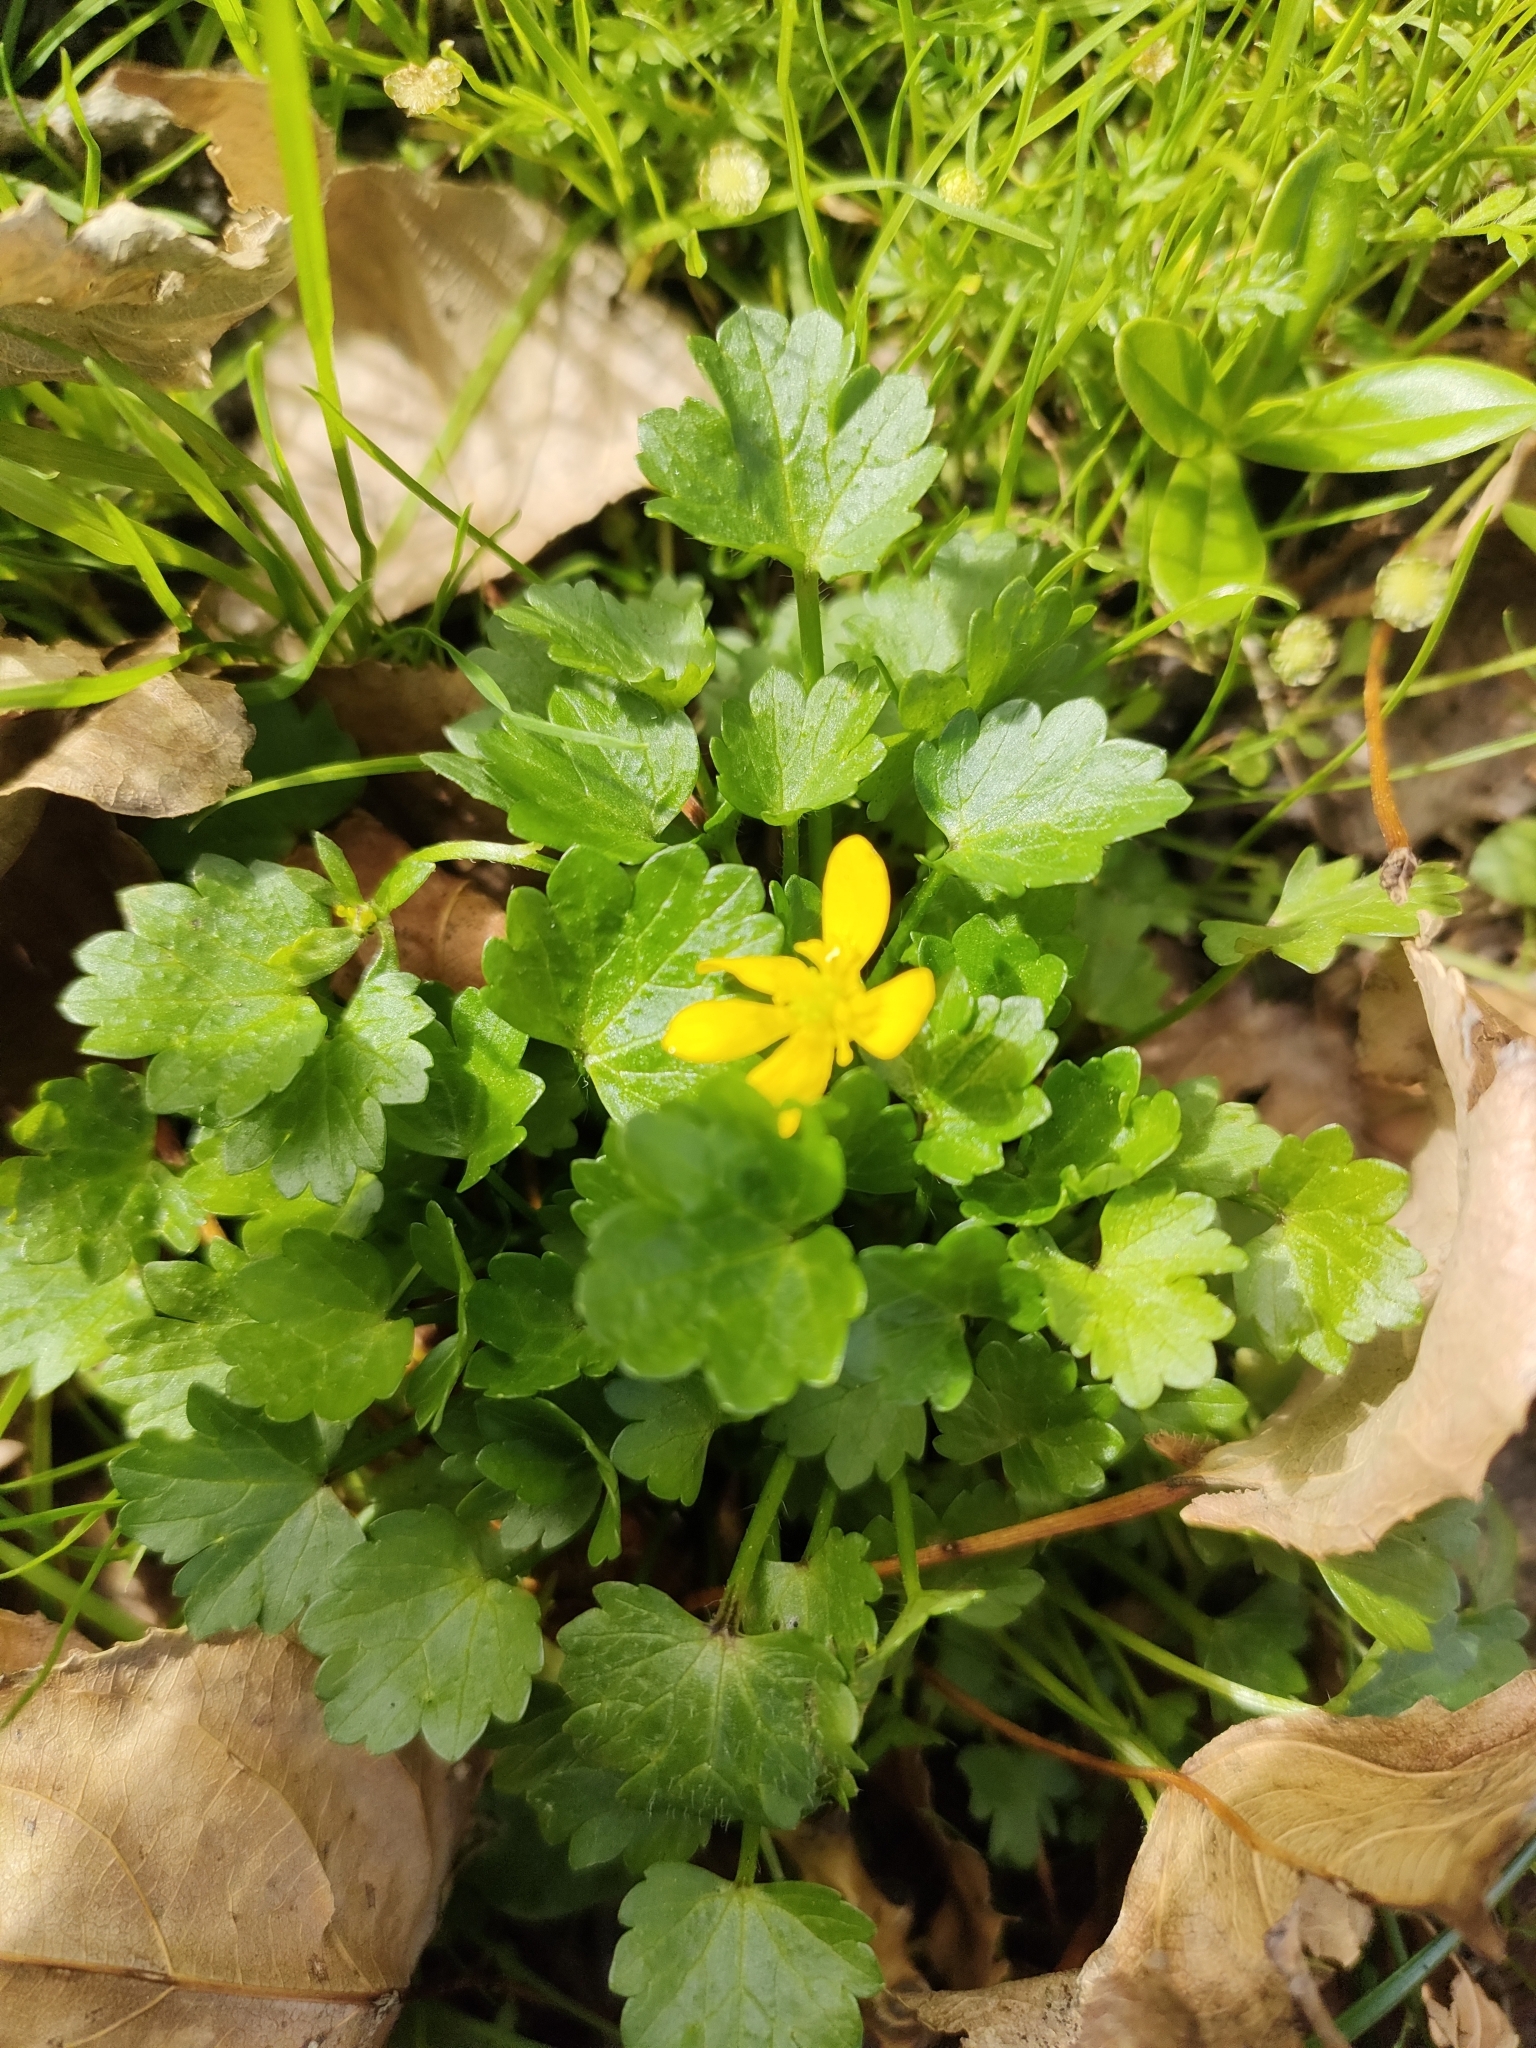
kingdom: Plantae
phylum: Tracheophyta
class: Magnoliopsida
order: Ranunculales
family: Ranunculaceae
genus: Ranunculus
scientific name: Ranunculus sardous
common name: Hairy buttercup
